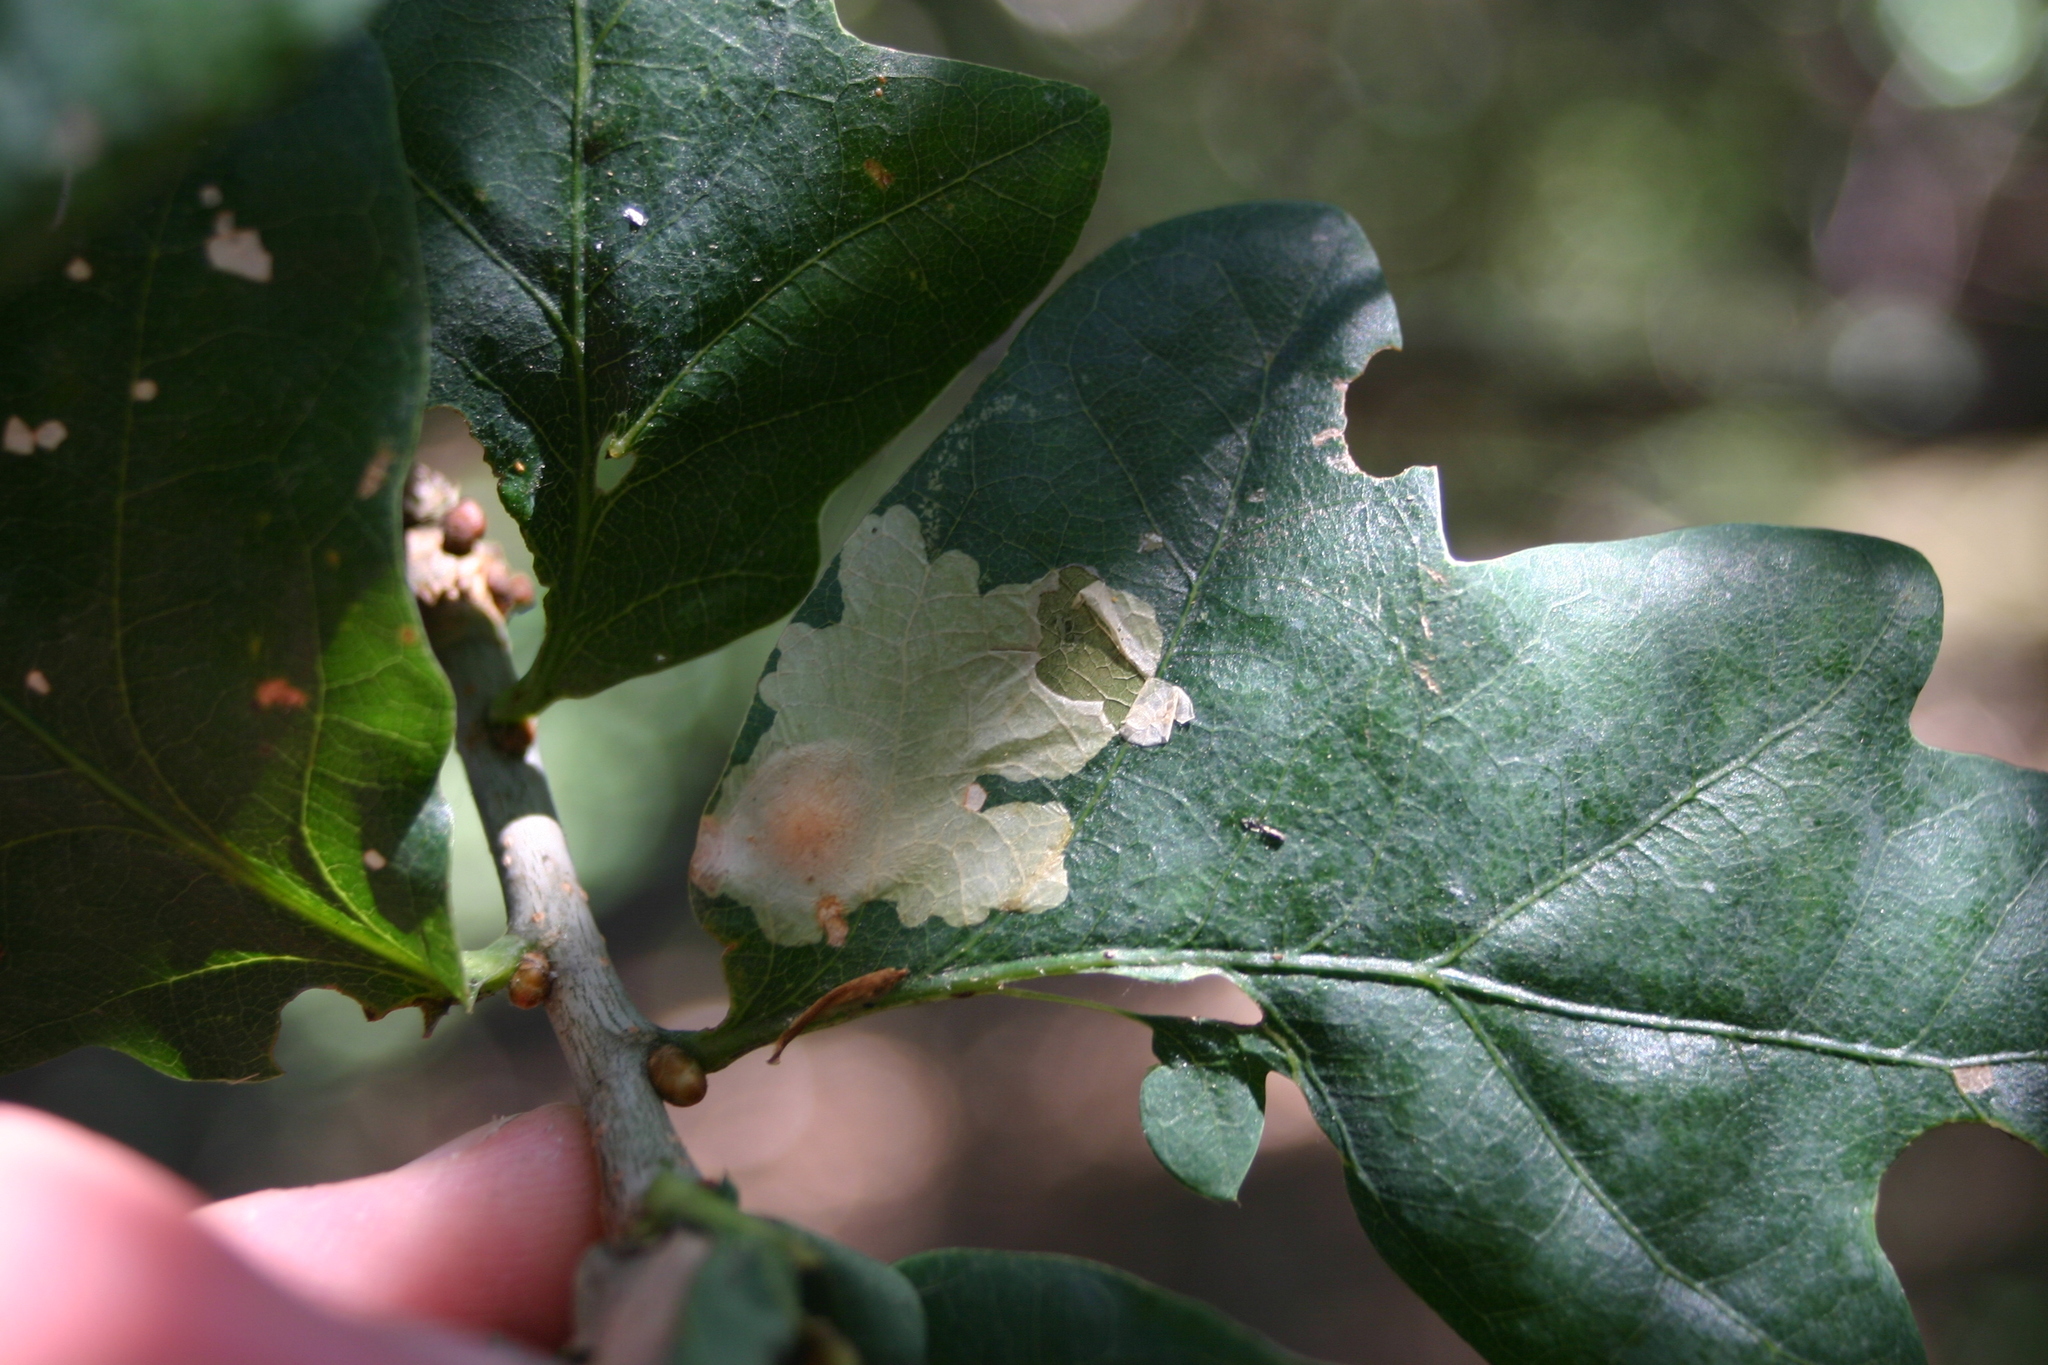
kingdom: Animalia
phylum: Arthropoda
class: Insecta
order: Lepidoptera
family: Tischeriidae
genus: Tischeria
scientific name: Tischeria ekebladella
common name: Oak carl
